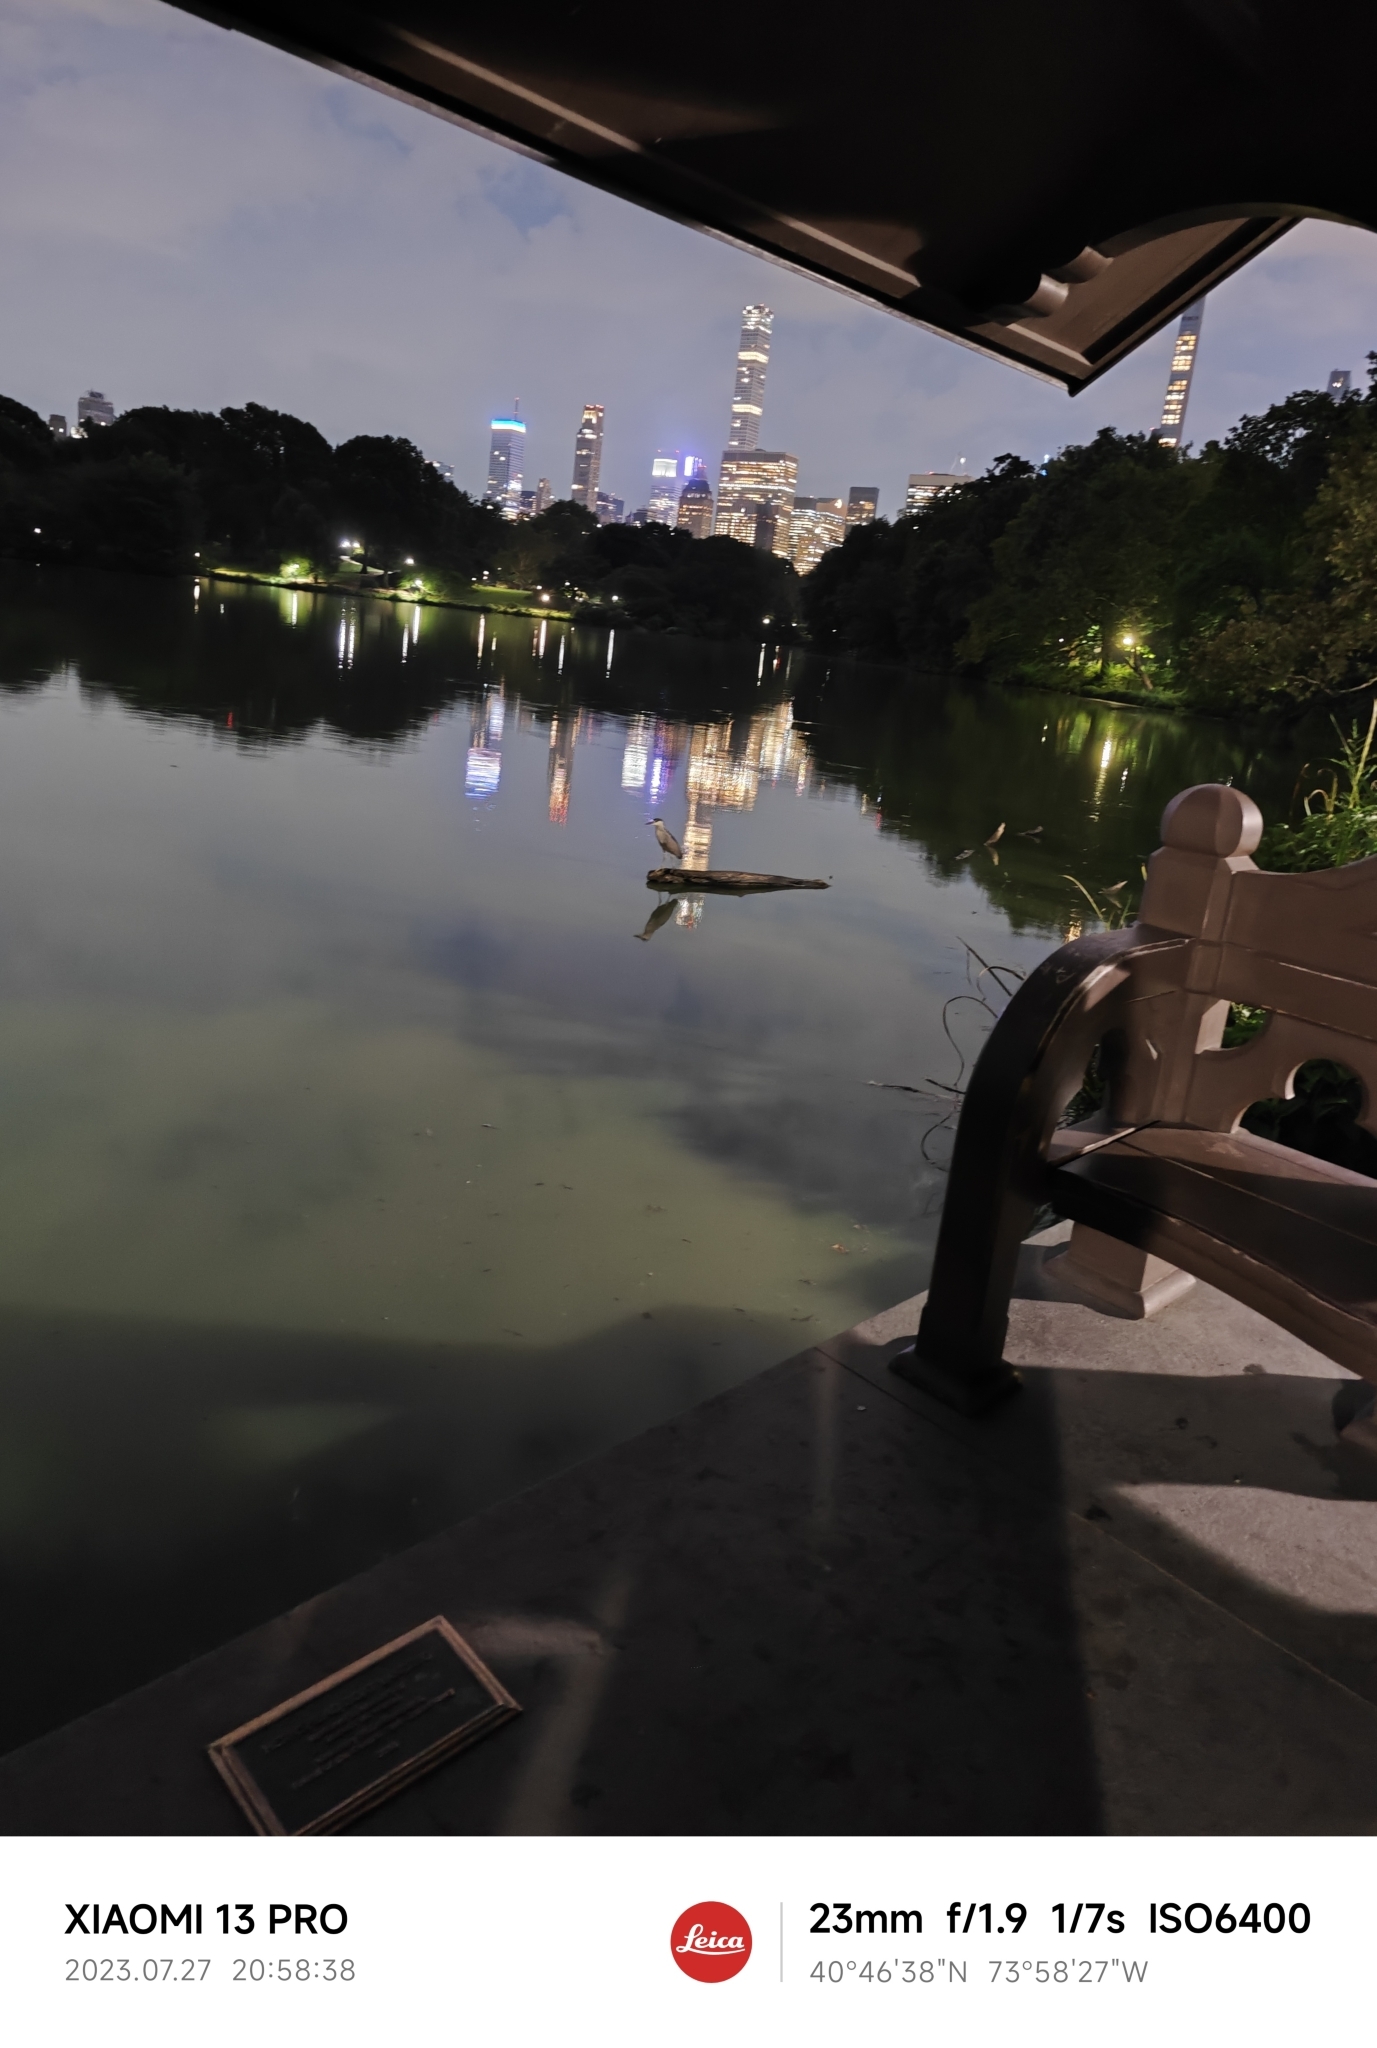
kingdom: Animalia
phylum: Chordata
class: Aves
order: Pelecaniformes
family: Ardeidae
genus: Nycticorax
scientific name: Nycticorax nycticorax
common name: Black-crowned night heron
